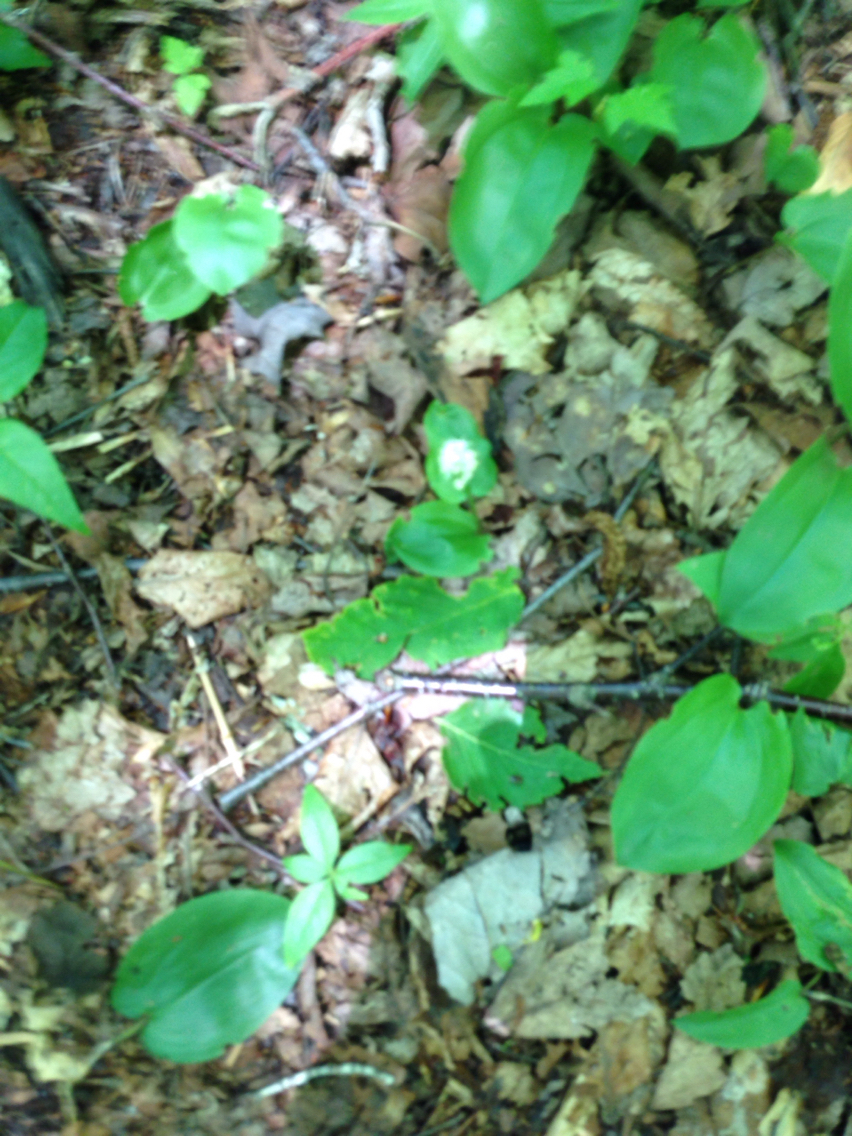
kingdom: Plantae
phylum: Tracheophyta
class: Liliopsida
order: Asparagales
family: Asparagaceae
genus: Maianthemum
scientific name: Maianthemum canadense
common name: False lily-of-the-valley
